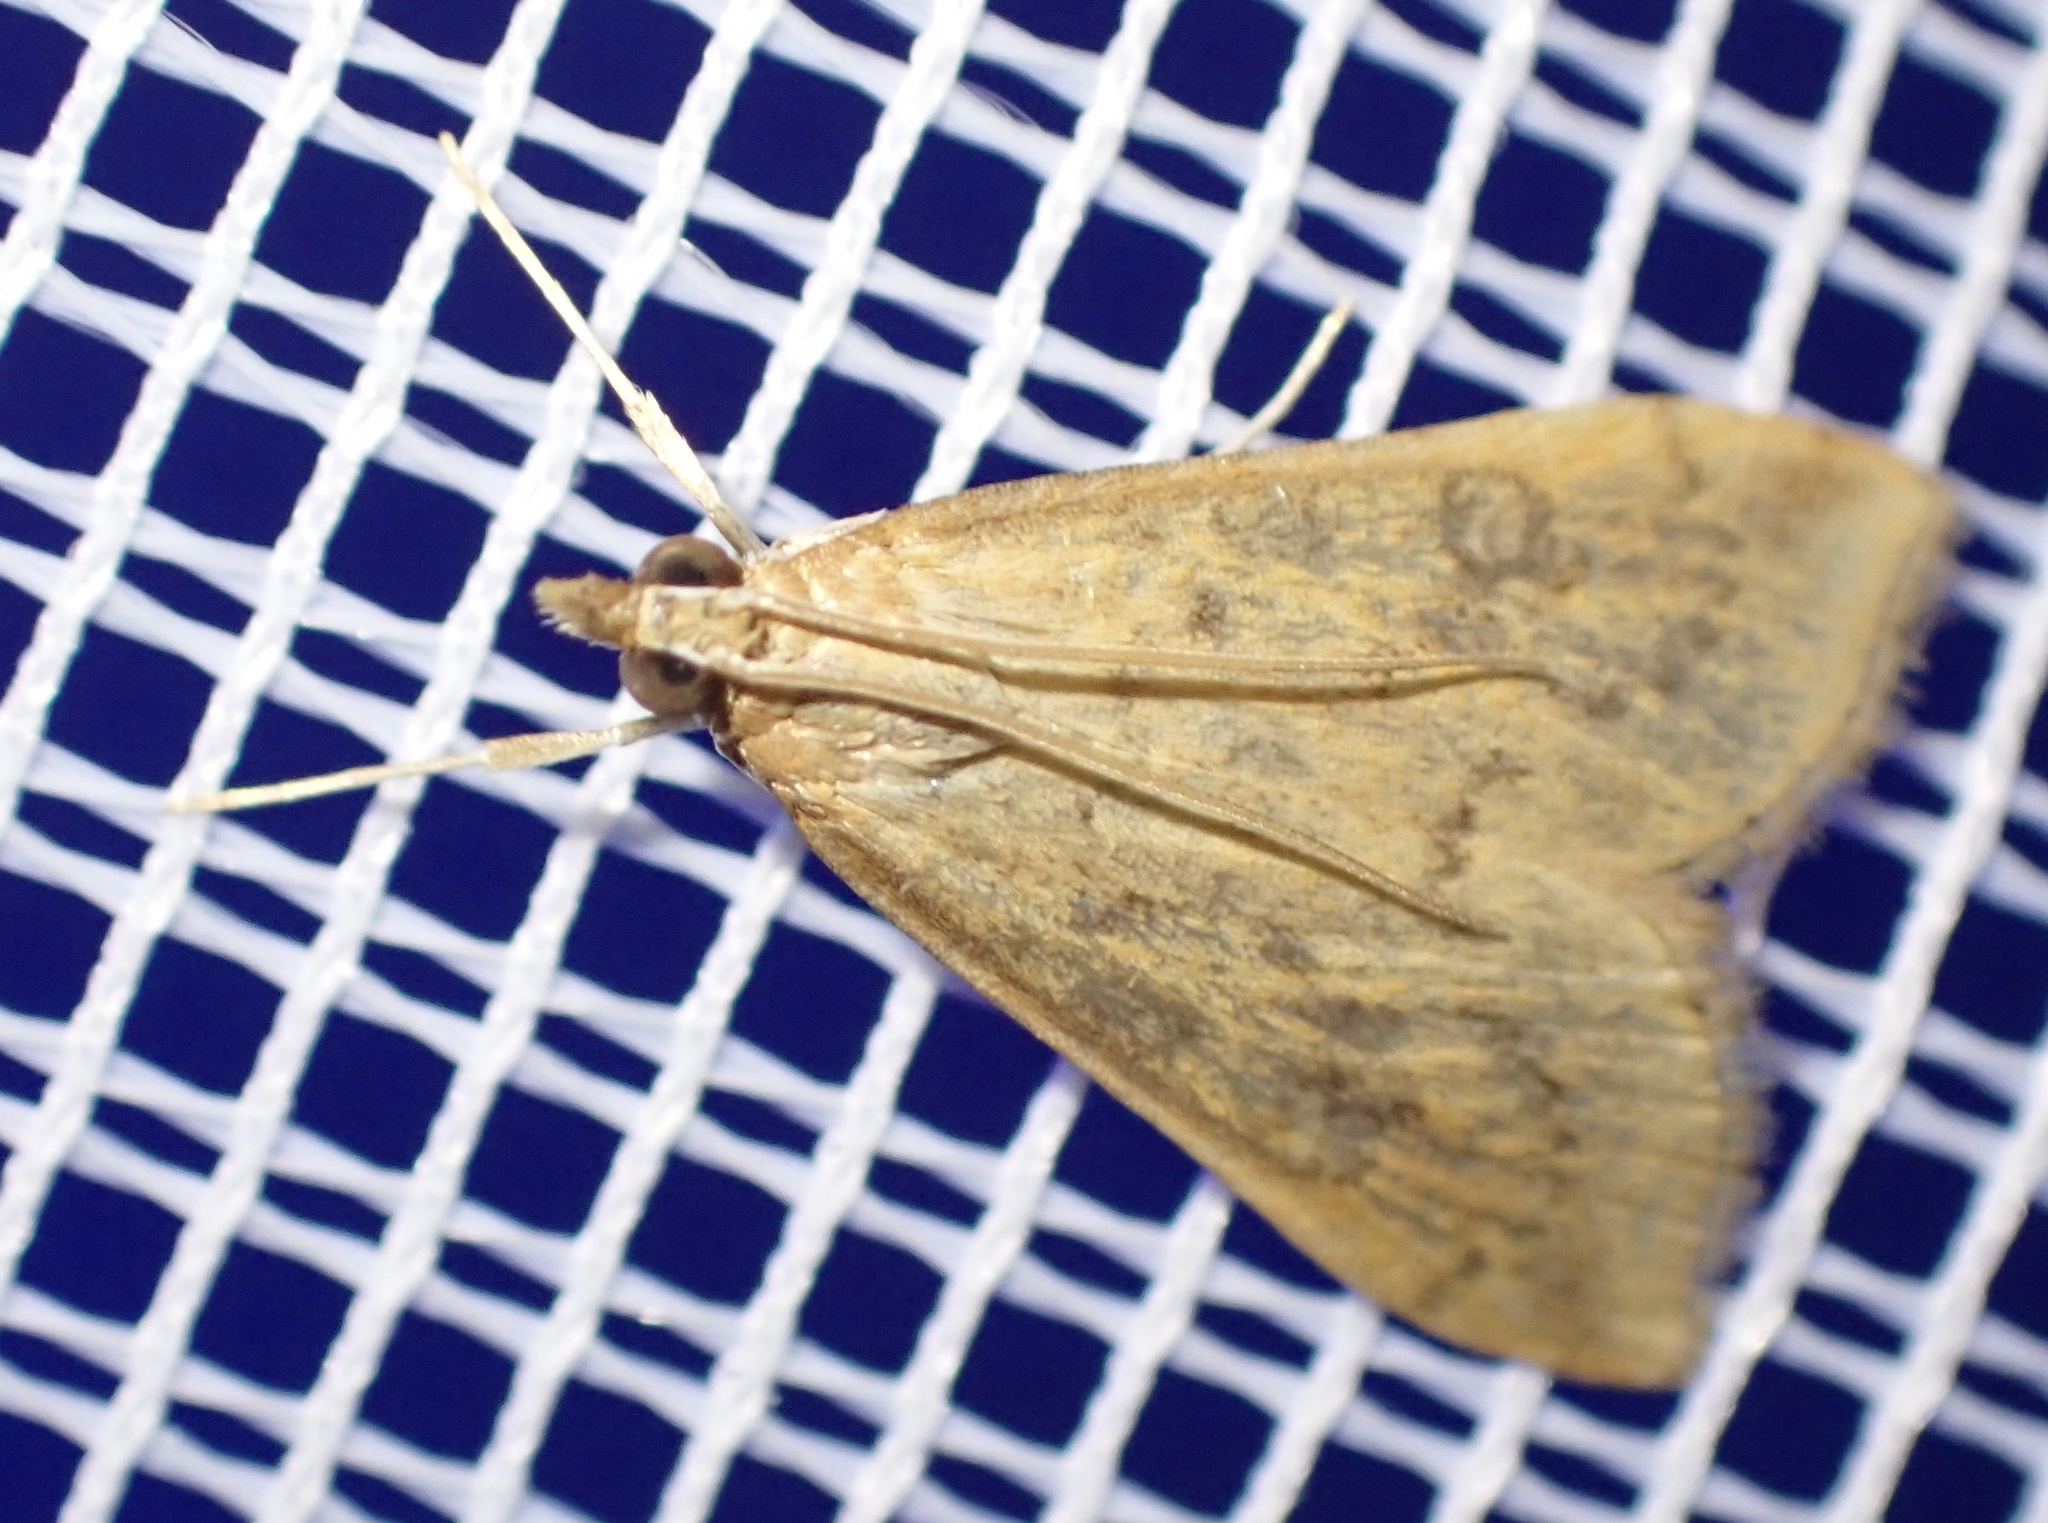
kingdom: Animalia
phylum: Arthropoda
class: Insecta
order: Lepidoptera
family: Crambidae
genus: Udea
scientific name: Udea ferrugalis
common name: Rusty dot
